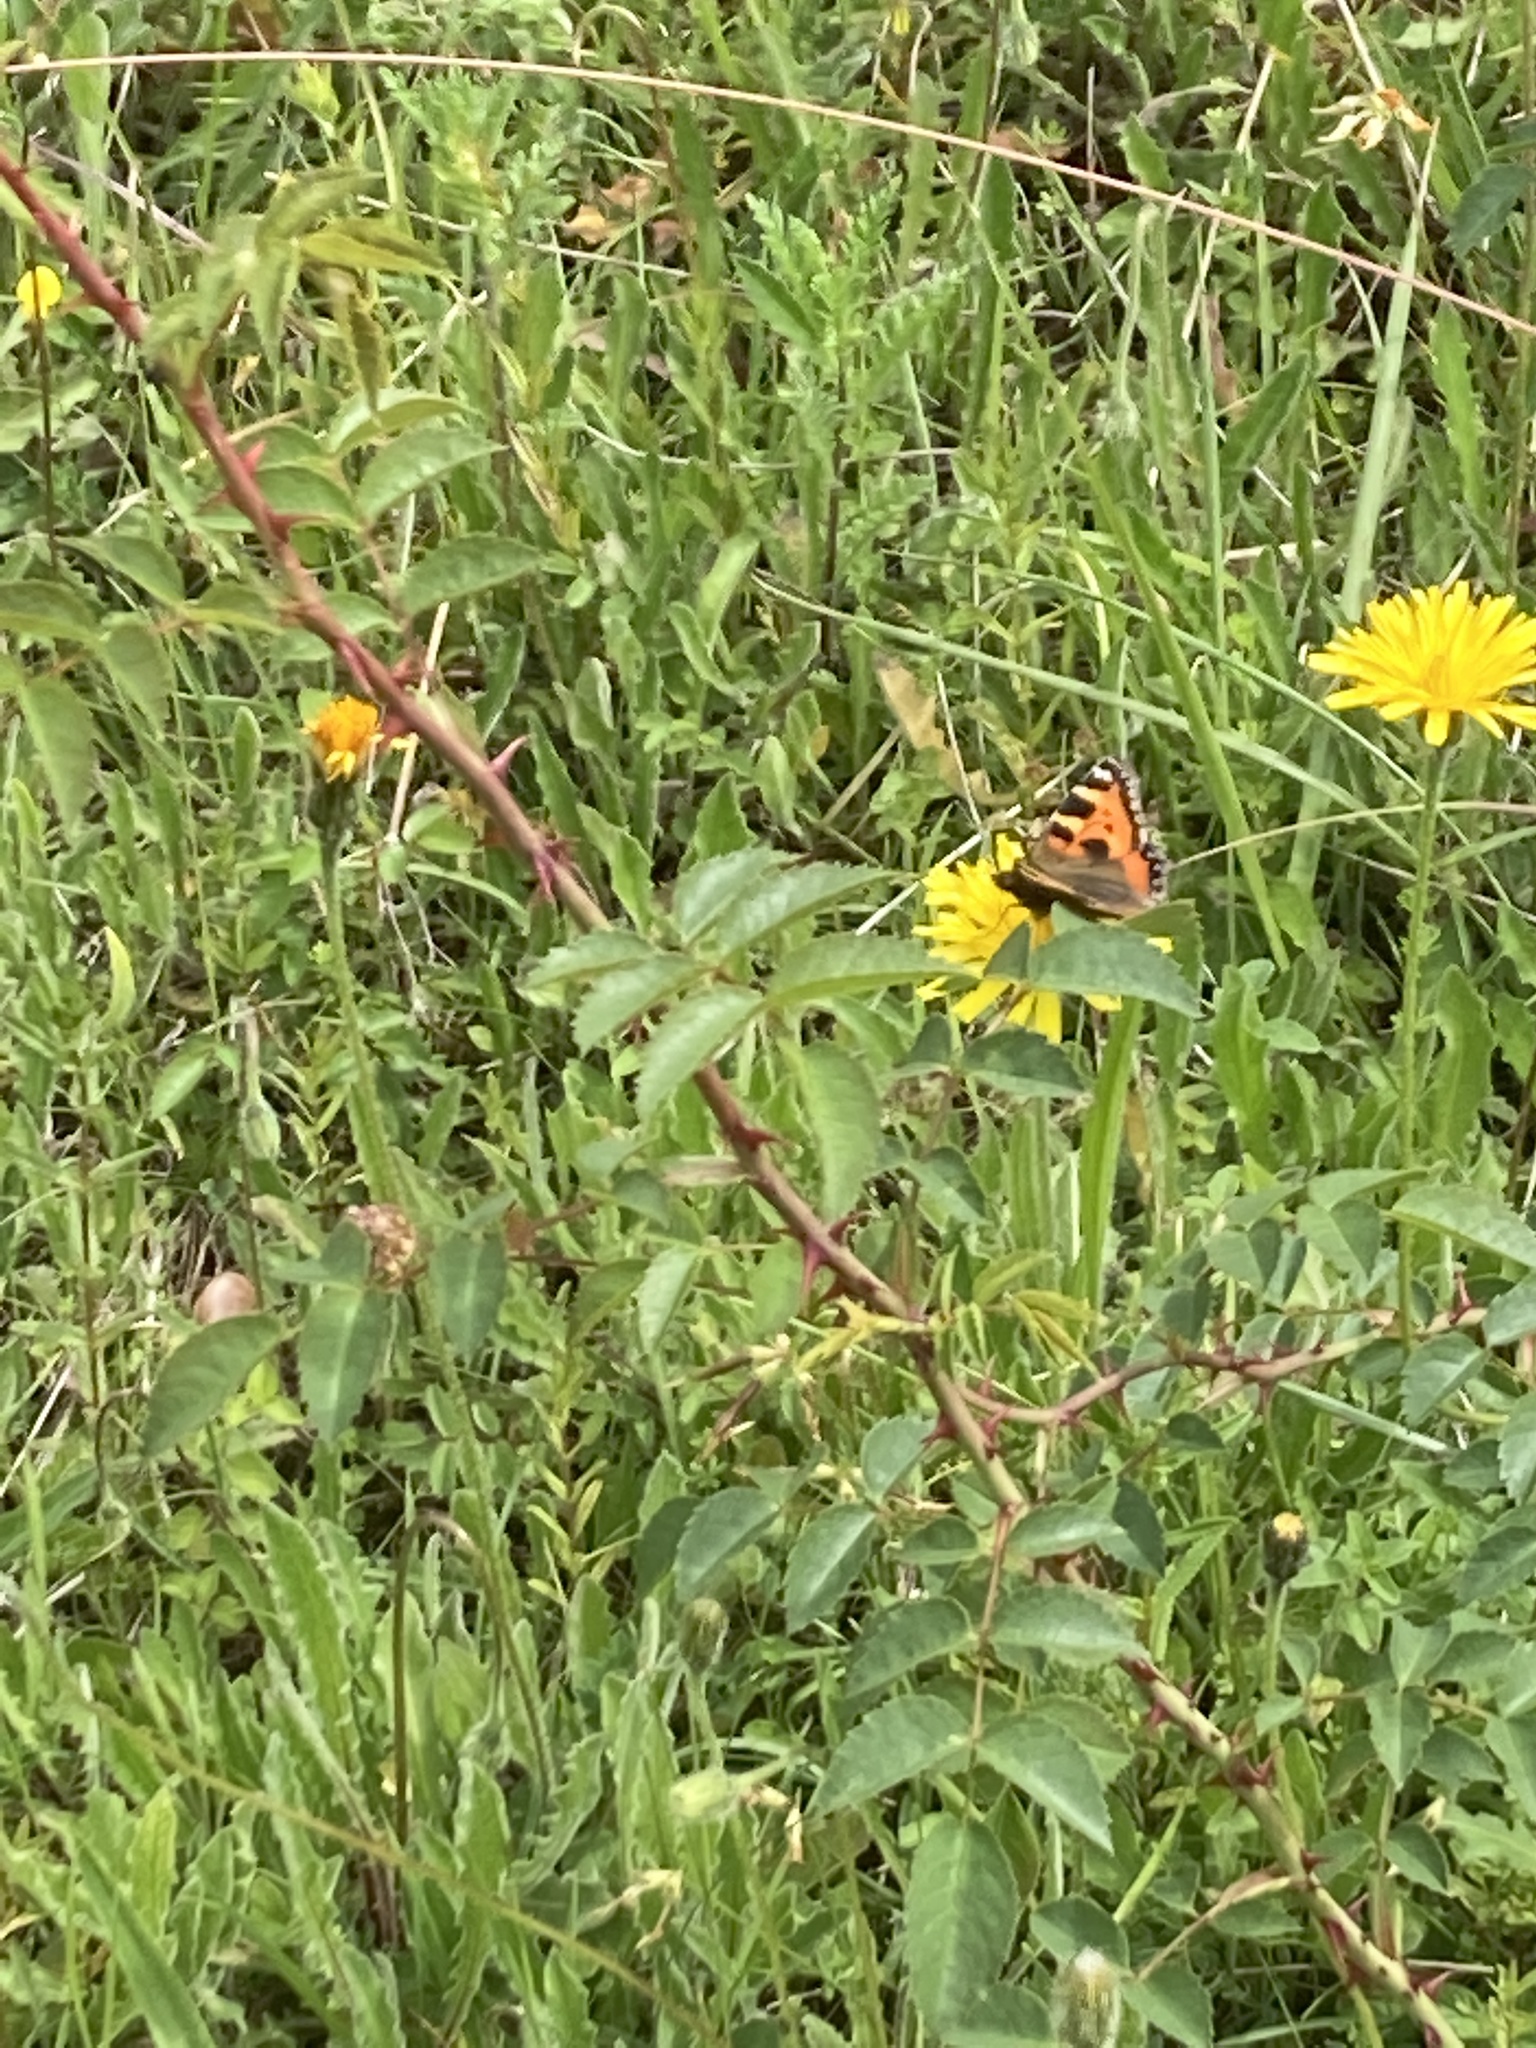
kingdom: Animalia
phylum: Arthropoda
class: Insecta
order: Lepidoptera
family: Nymphalidae
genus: Aglais
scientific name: Aglais urticae
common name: Small tortoiseshell
